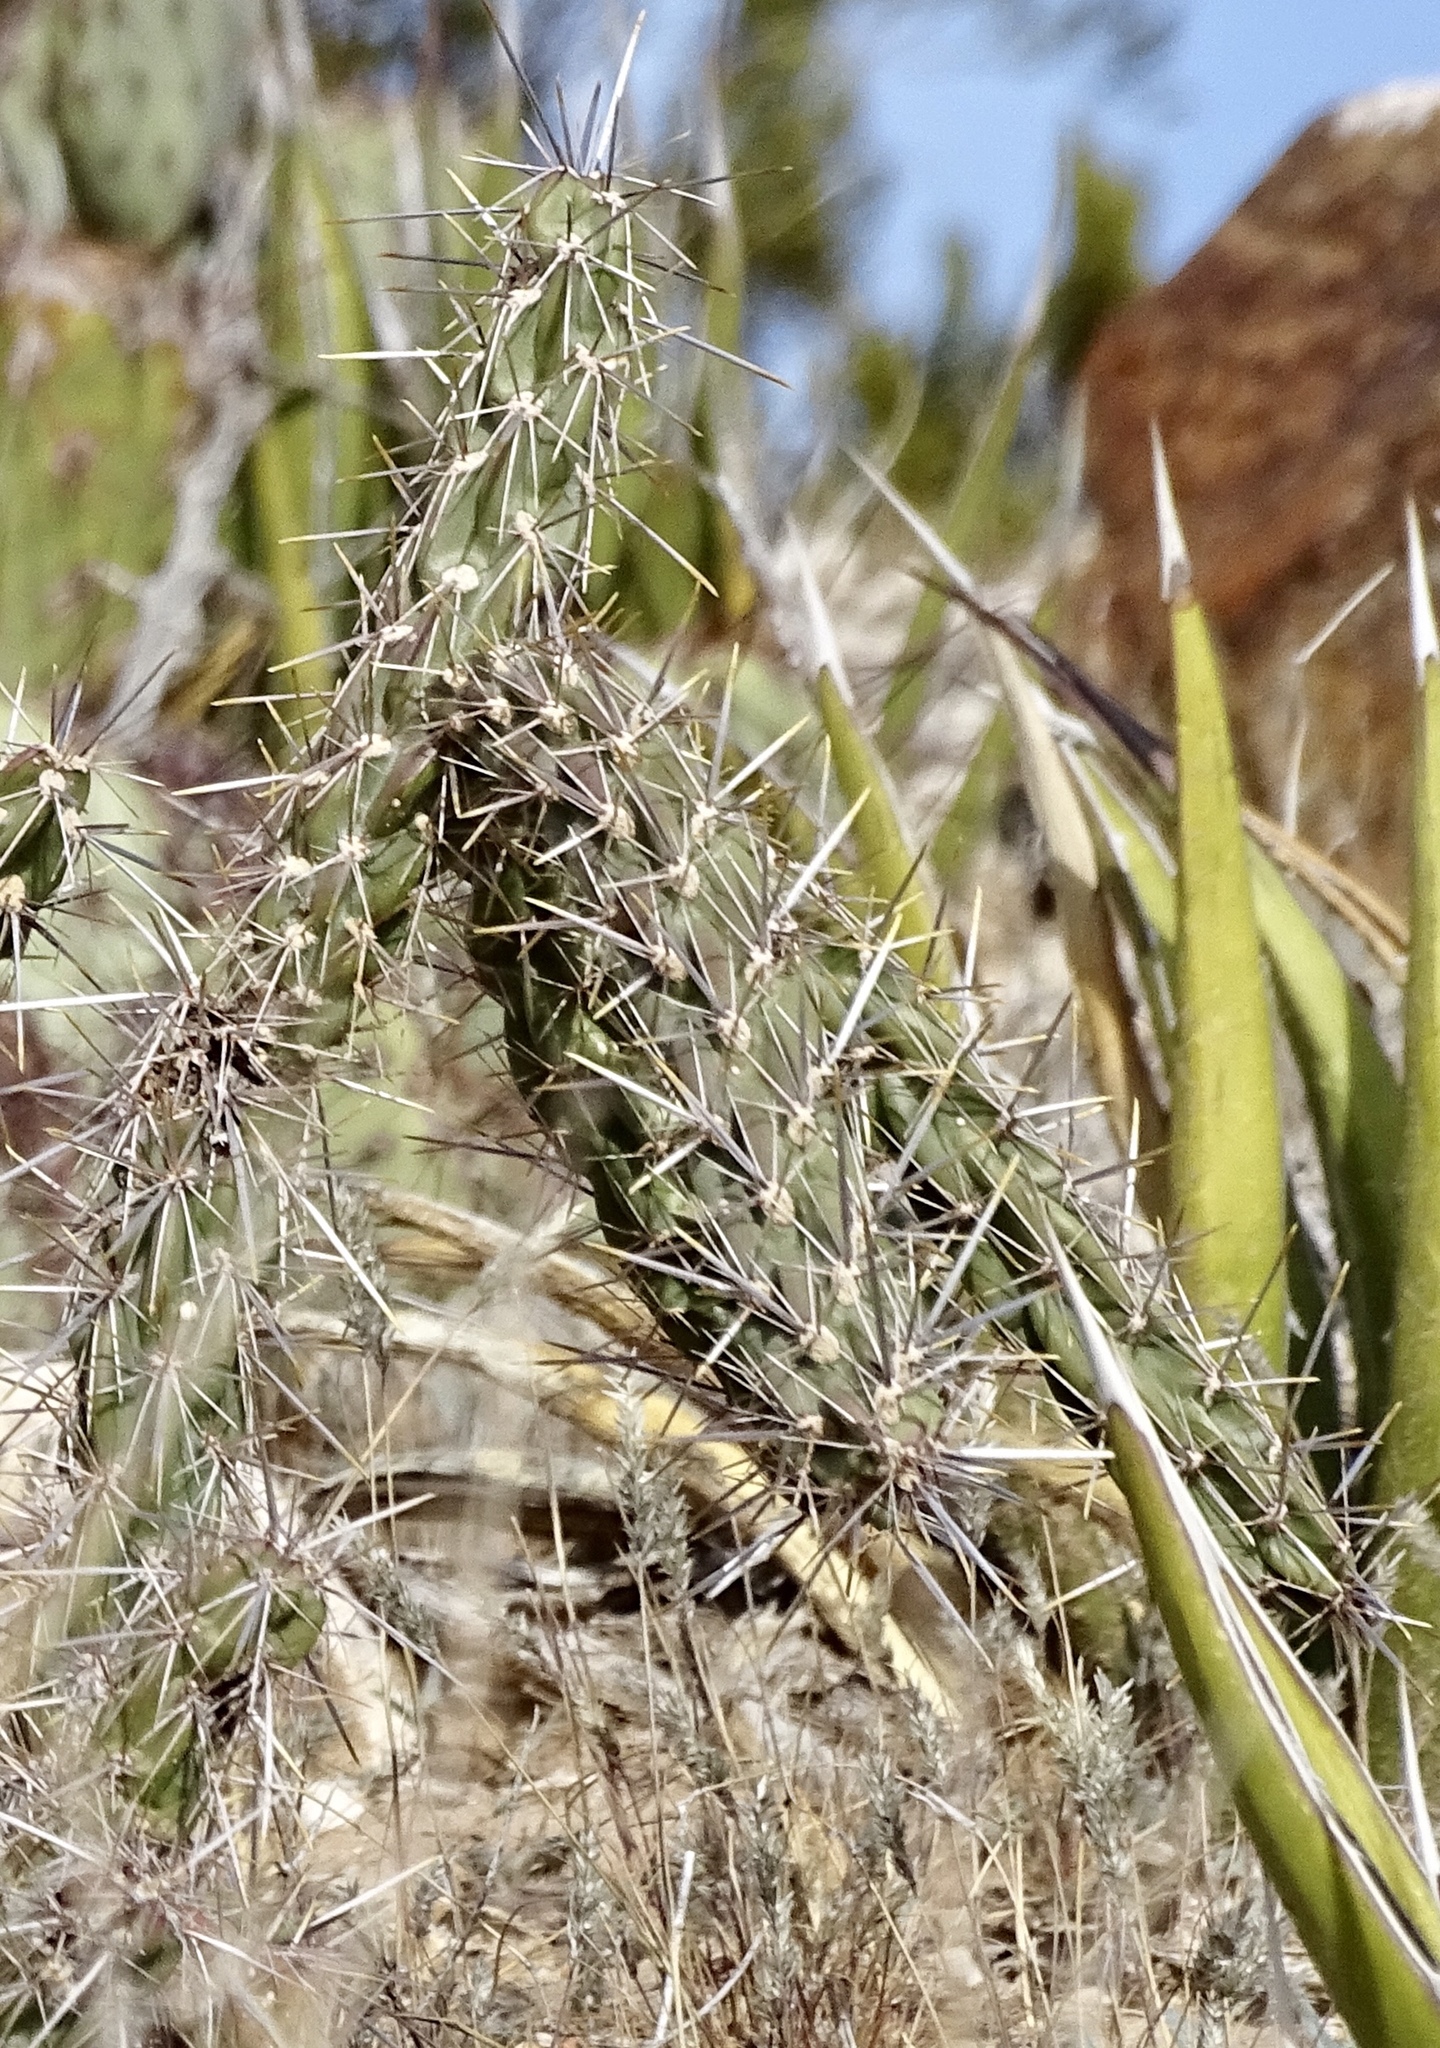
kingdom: Plantae
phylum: Tracheophyta
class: Magnoliopsida
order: Caryophyllales
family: Cactaceae
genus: Cylindropuntia
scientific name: Cylindropuntia imbricata
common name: Candelabrum cactus
